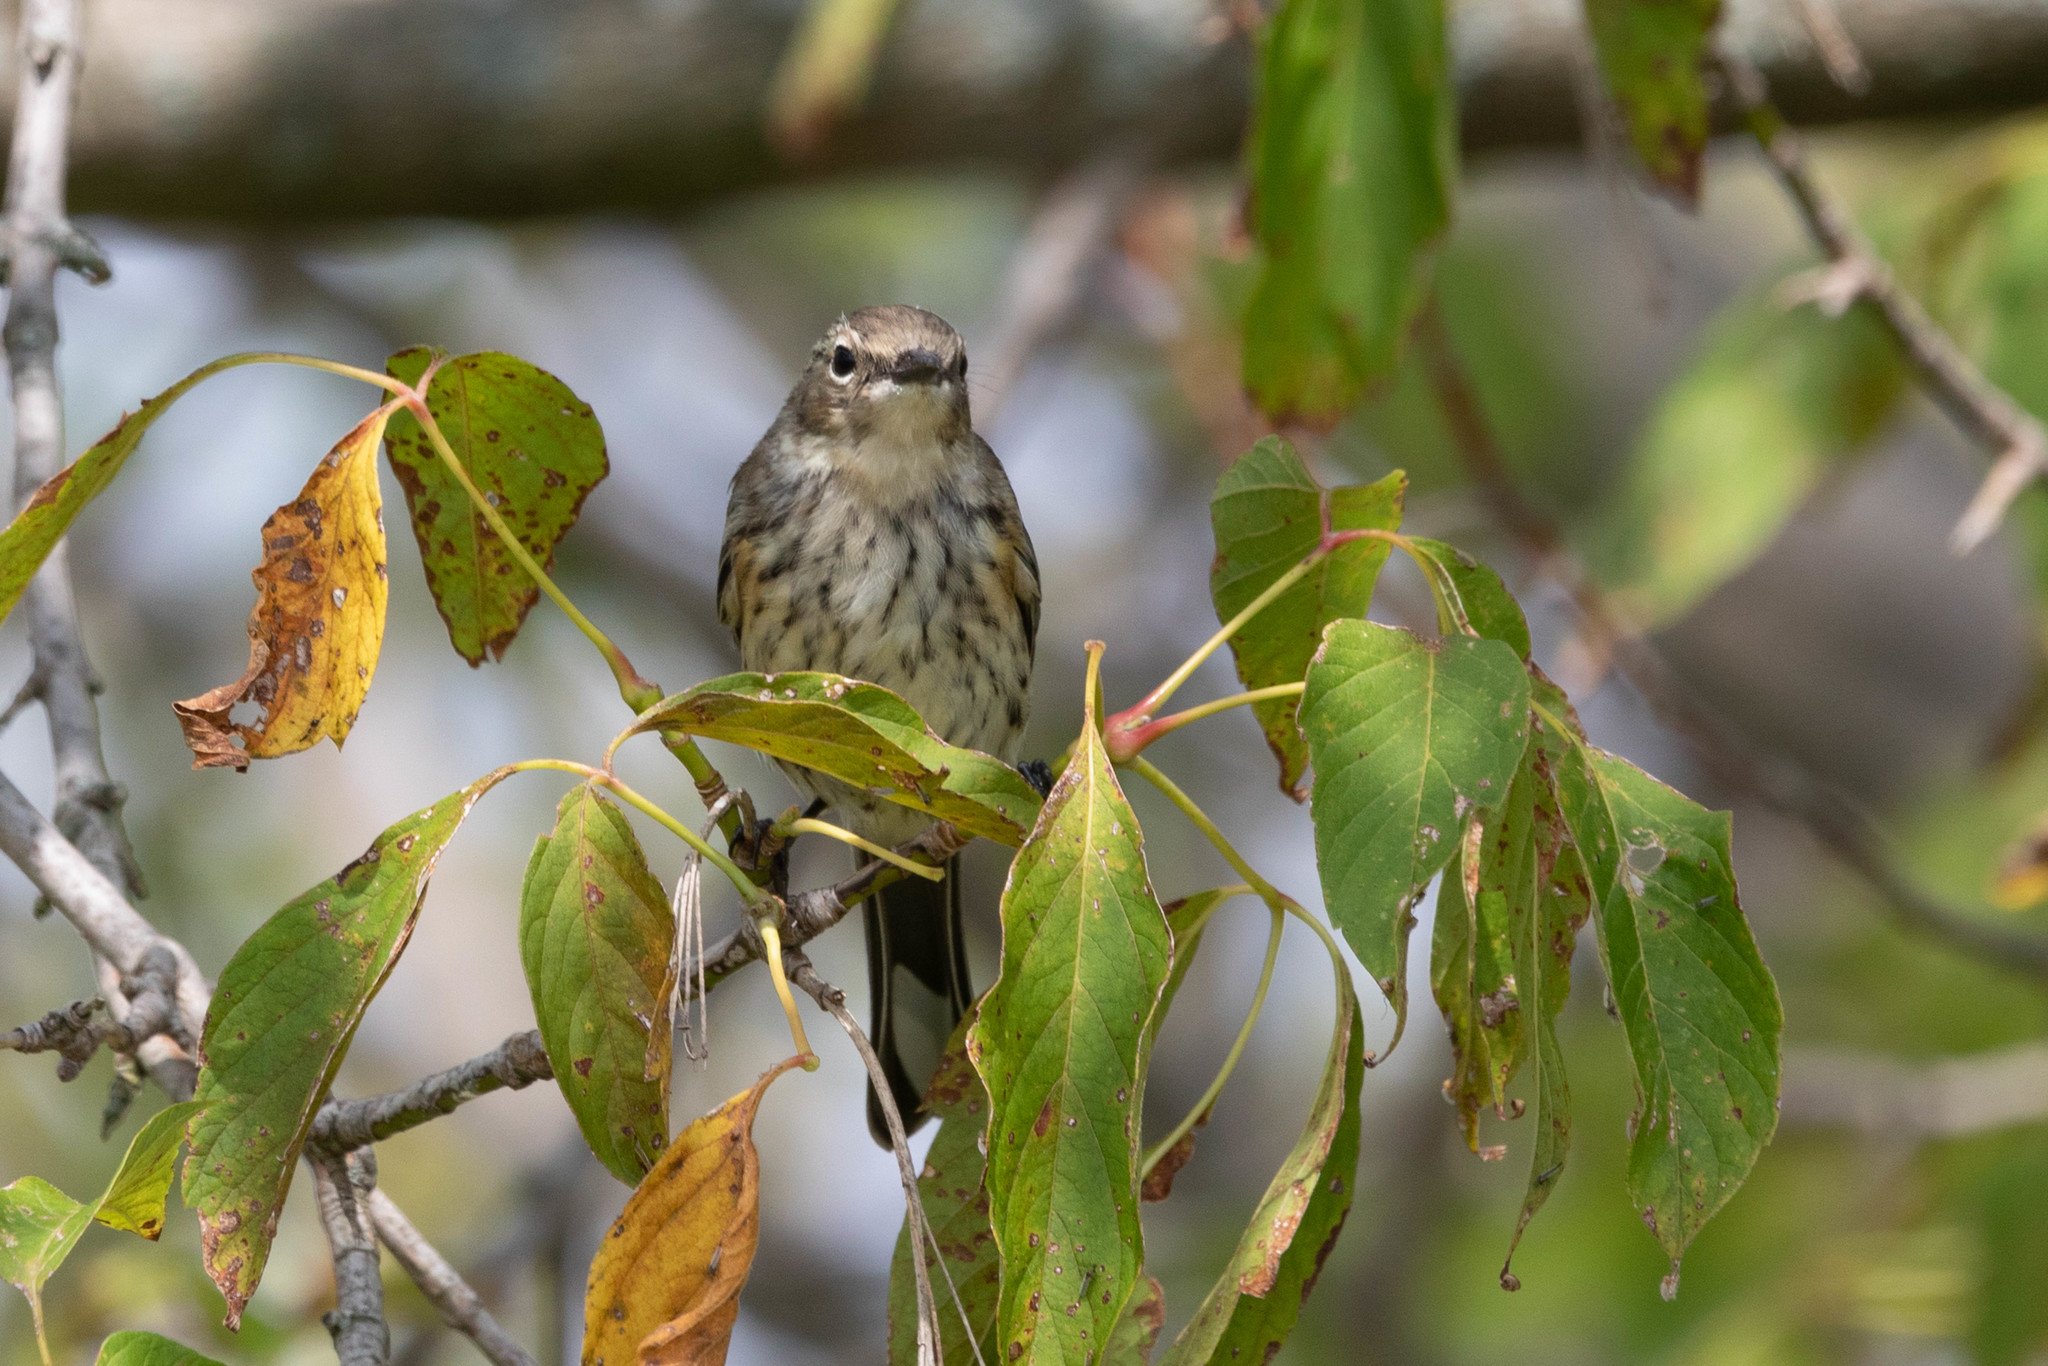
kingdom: Animalia
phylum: Chordata
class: Aves
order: Passeriformes
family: Parulidae
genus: Setophaga
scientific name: Setophaga coronata
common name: Myrtle warbler
